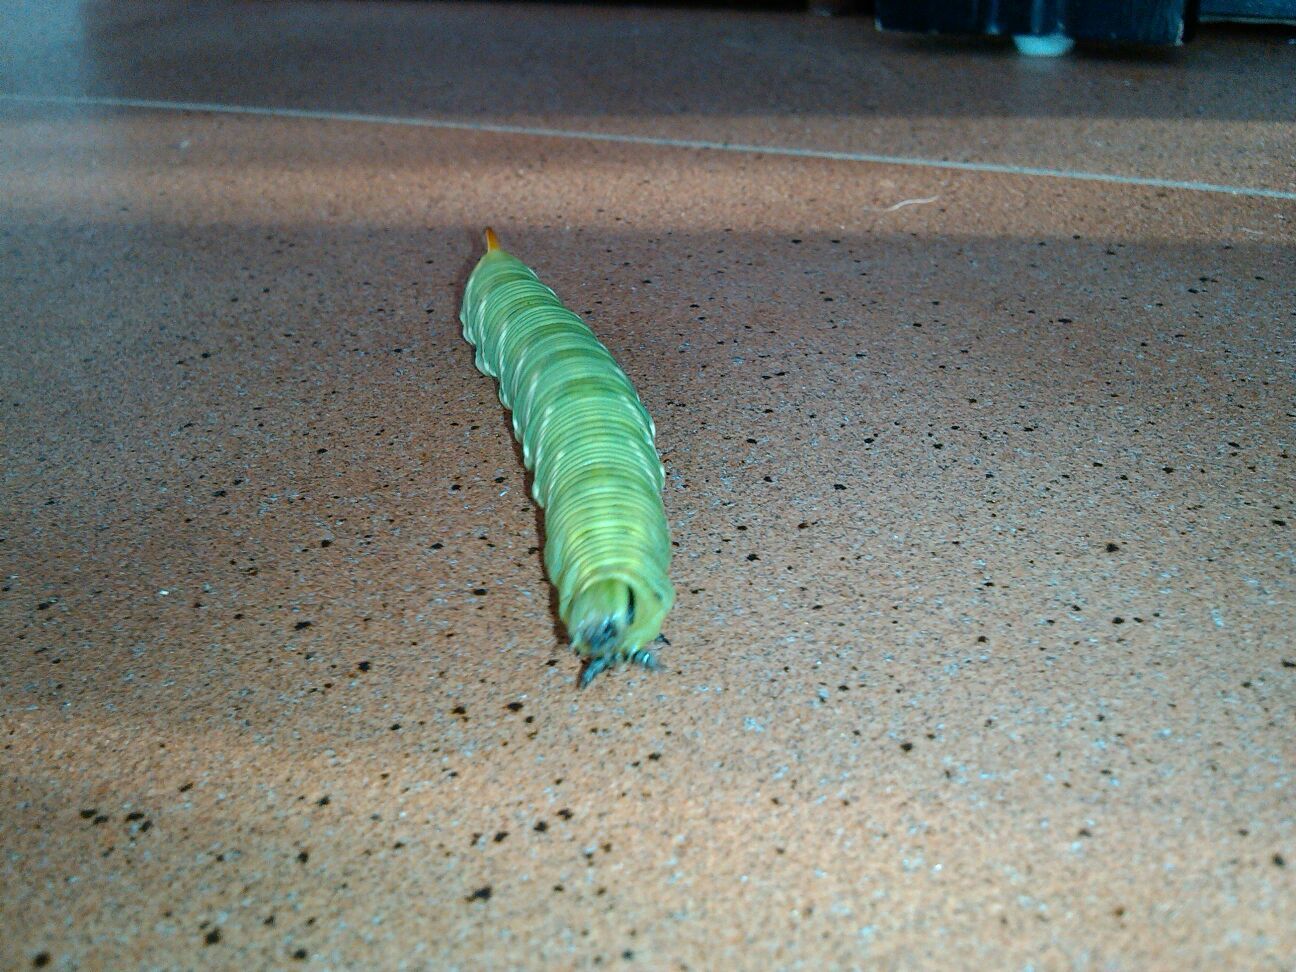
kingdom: Animalia
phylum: Arthropoda
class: Insecta
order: Lepidoptera
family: Sphingidae
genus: Agrius
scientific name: Agrius convolvuli
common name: Convolvulus hawkmoth
